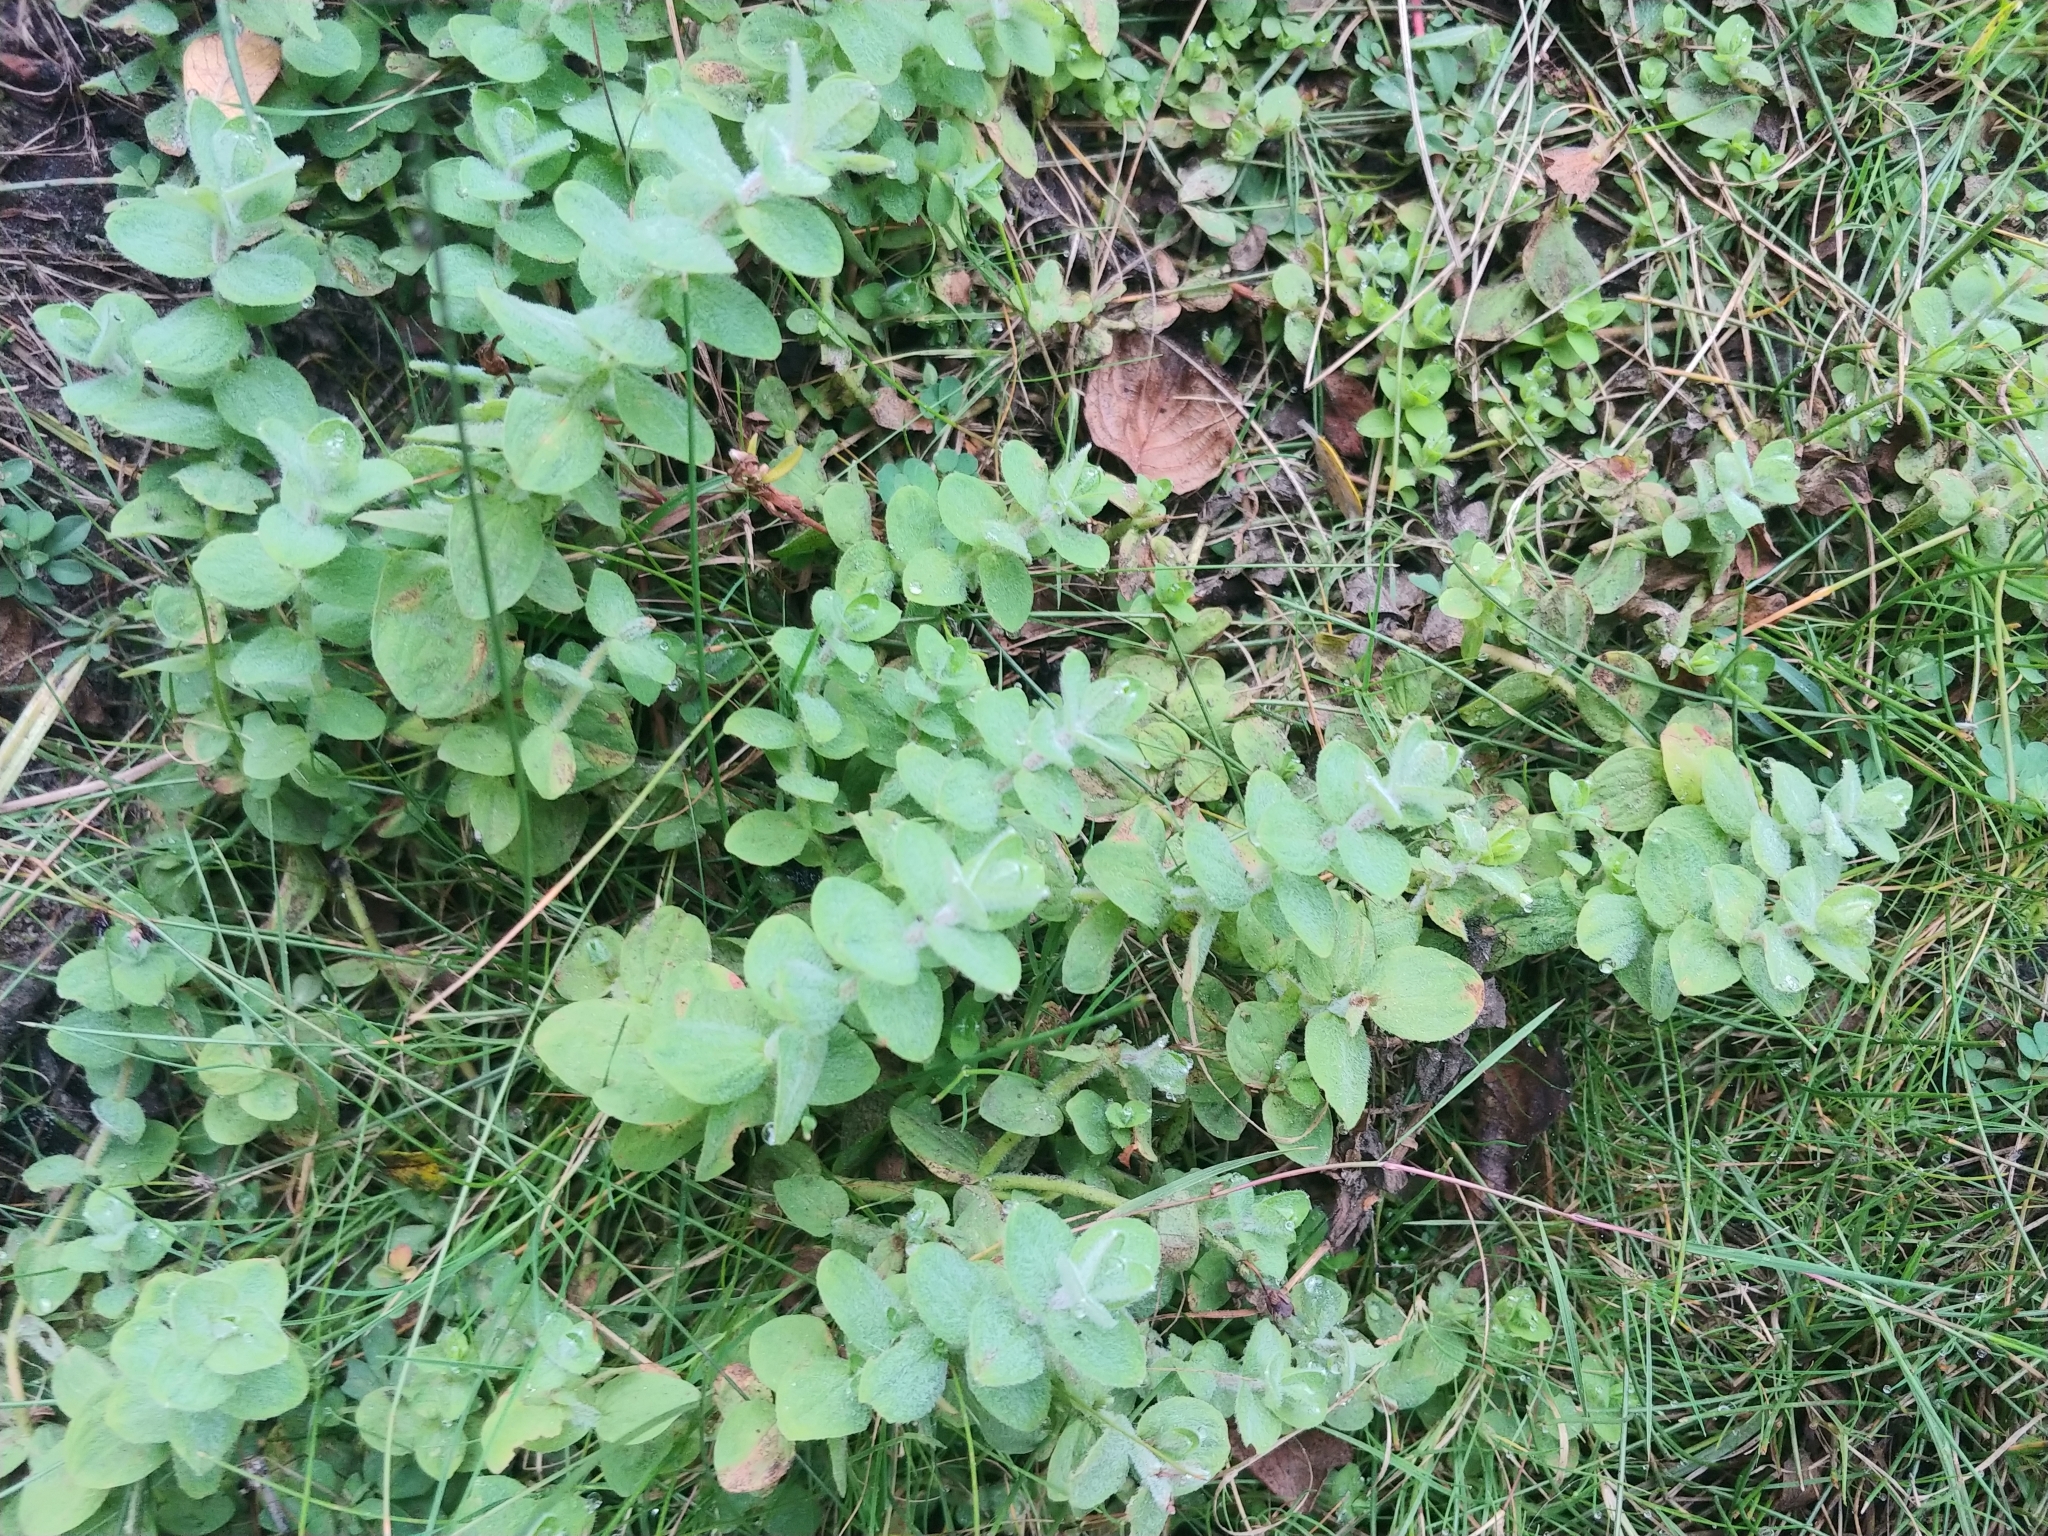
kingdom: Plantae
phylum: Tracheophyta
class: Magnoliopsida
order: Malpighiales
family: Hypericaceae
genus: Hypericum
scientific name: Hypericum elodes
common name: Marsh st. john's-wort
